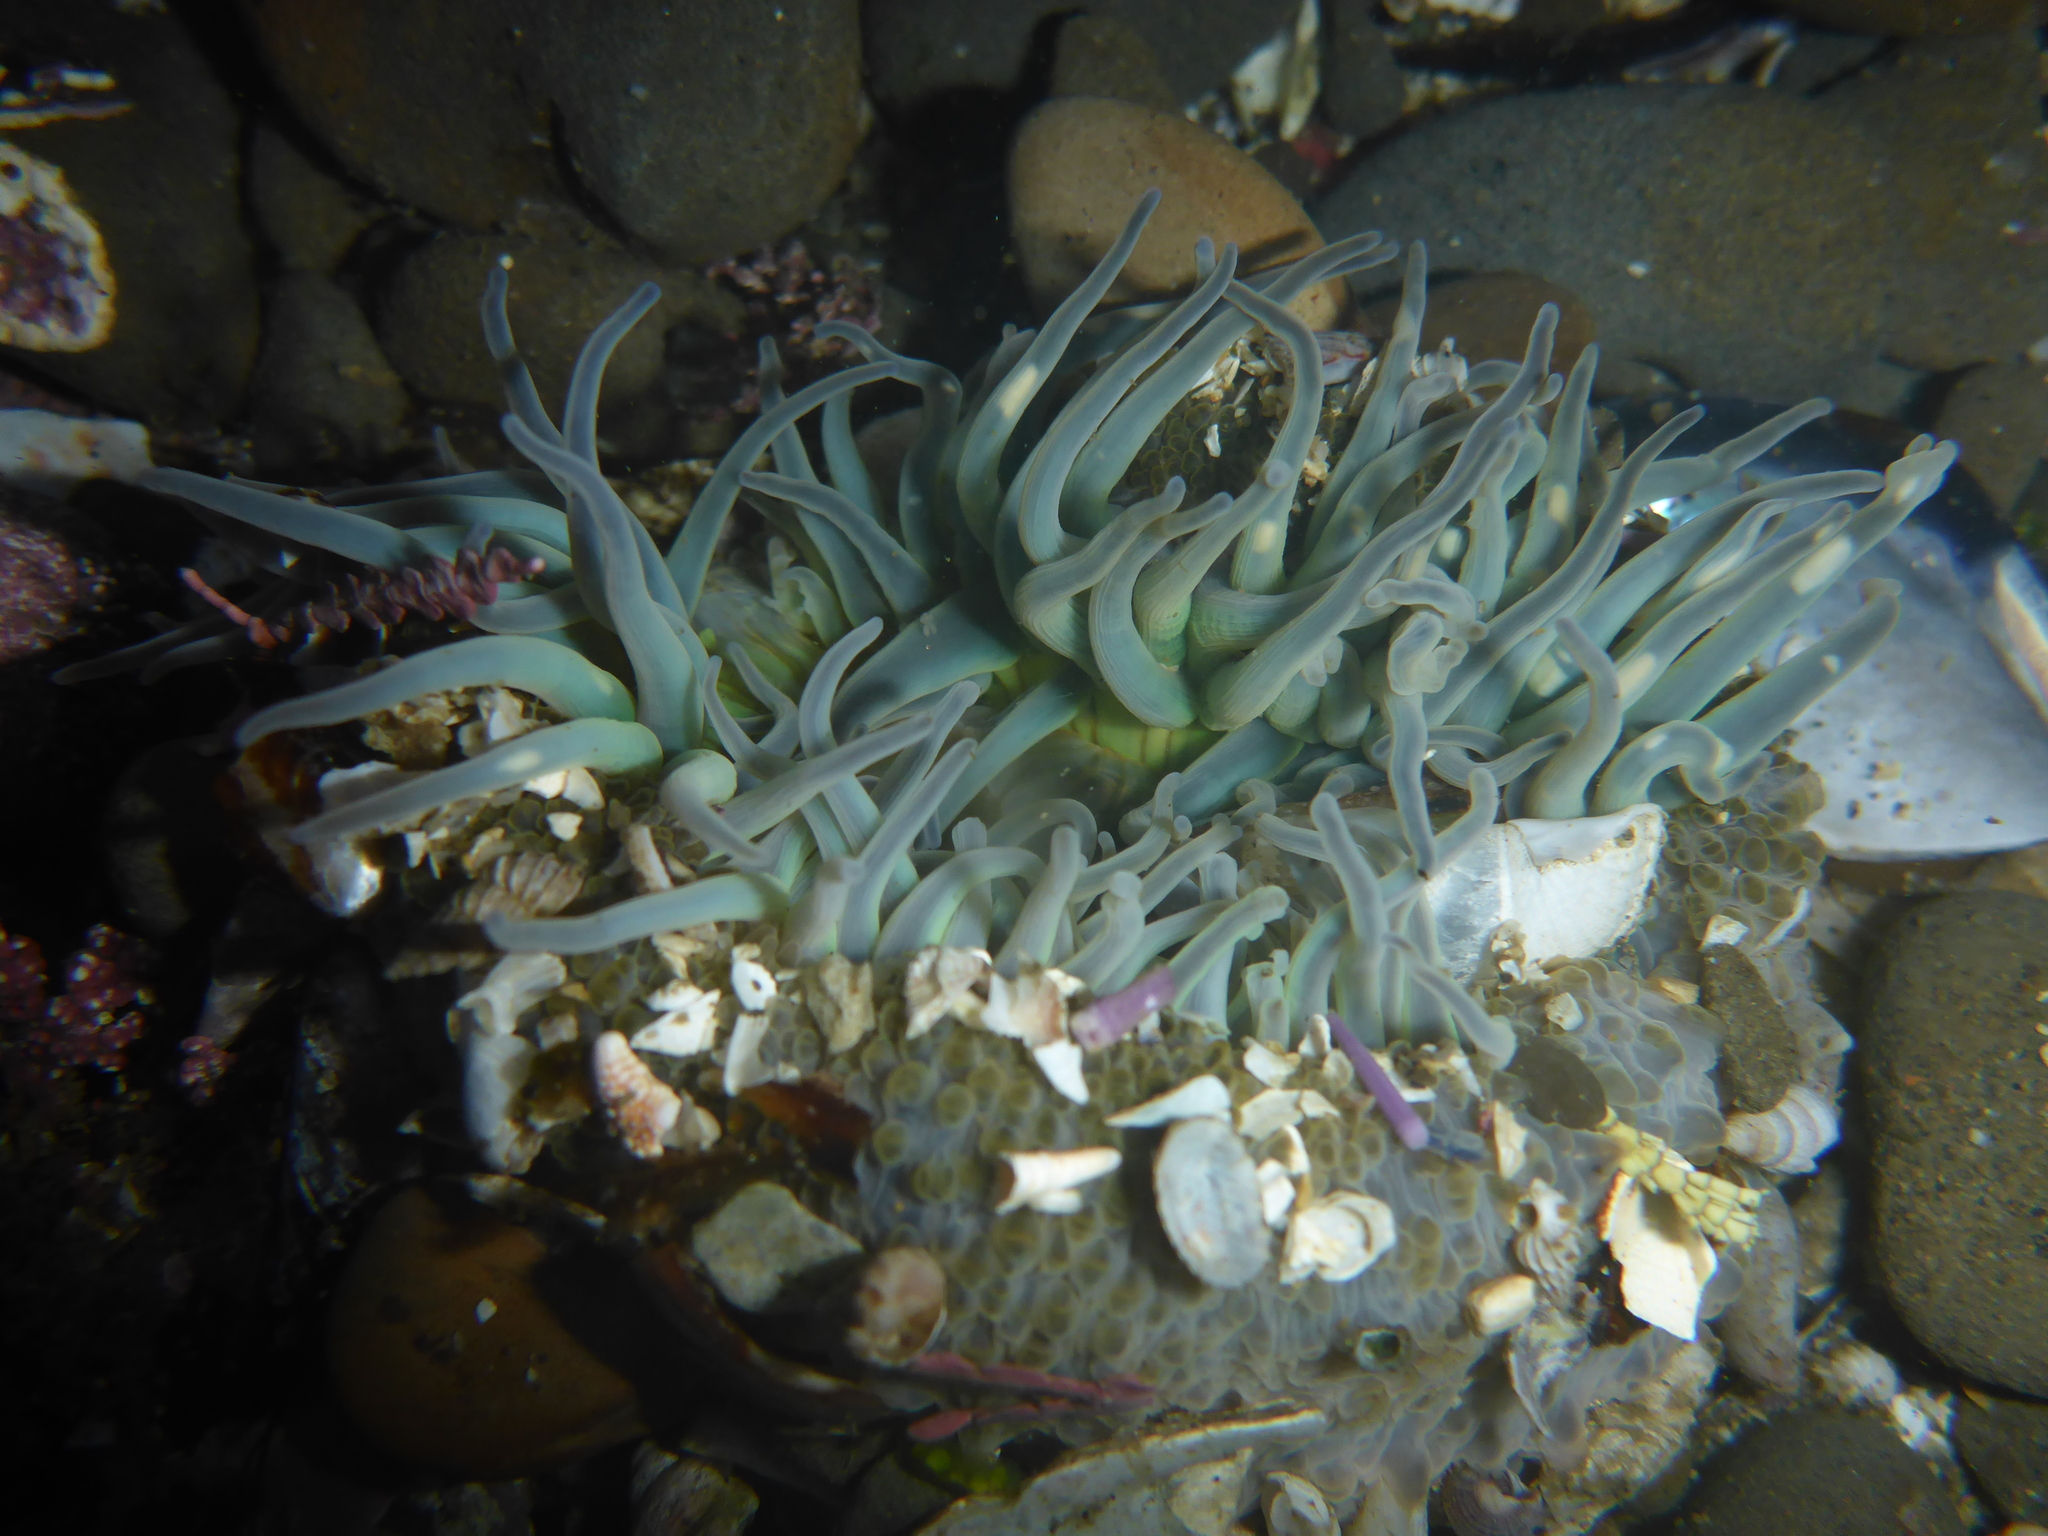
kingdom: Animalia
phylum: Cnidaria
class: Anthozoa
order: Actiniaria
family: Actiniidae
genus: Anthopleura
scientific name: Anthopleura sola
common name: Sun anemone
